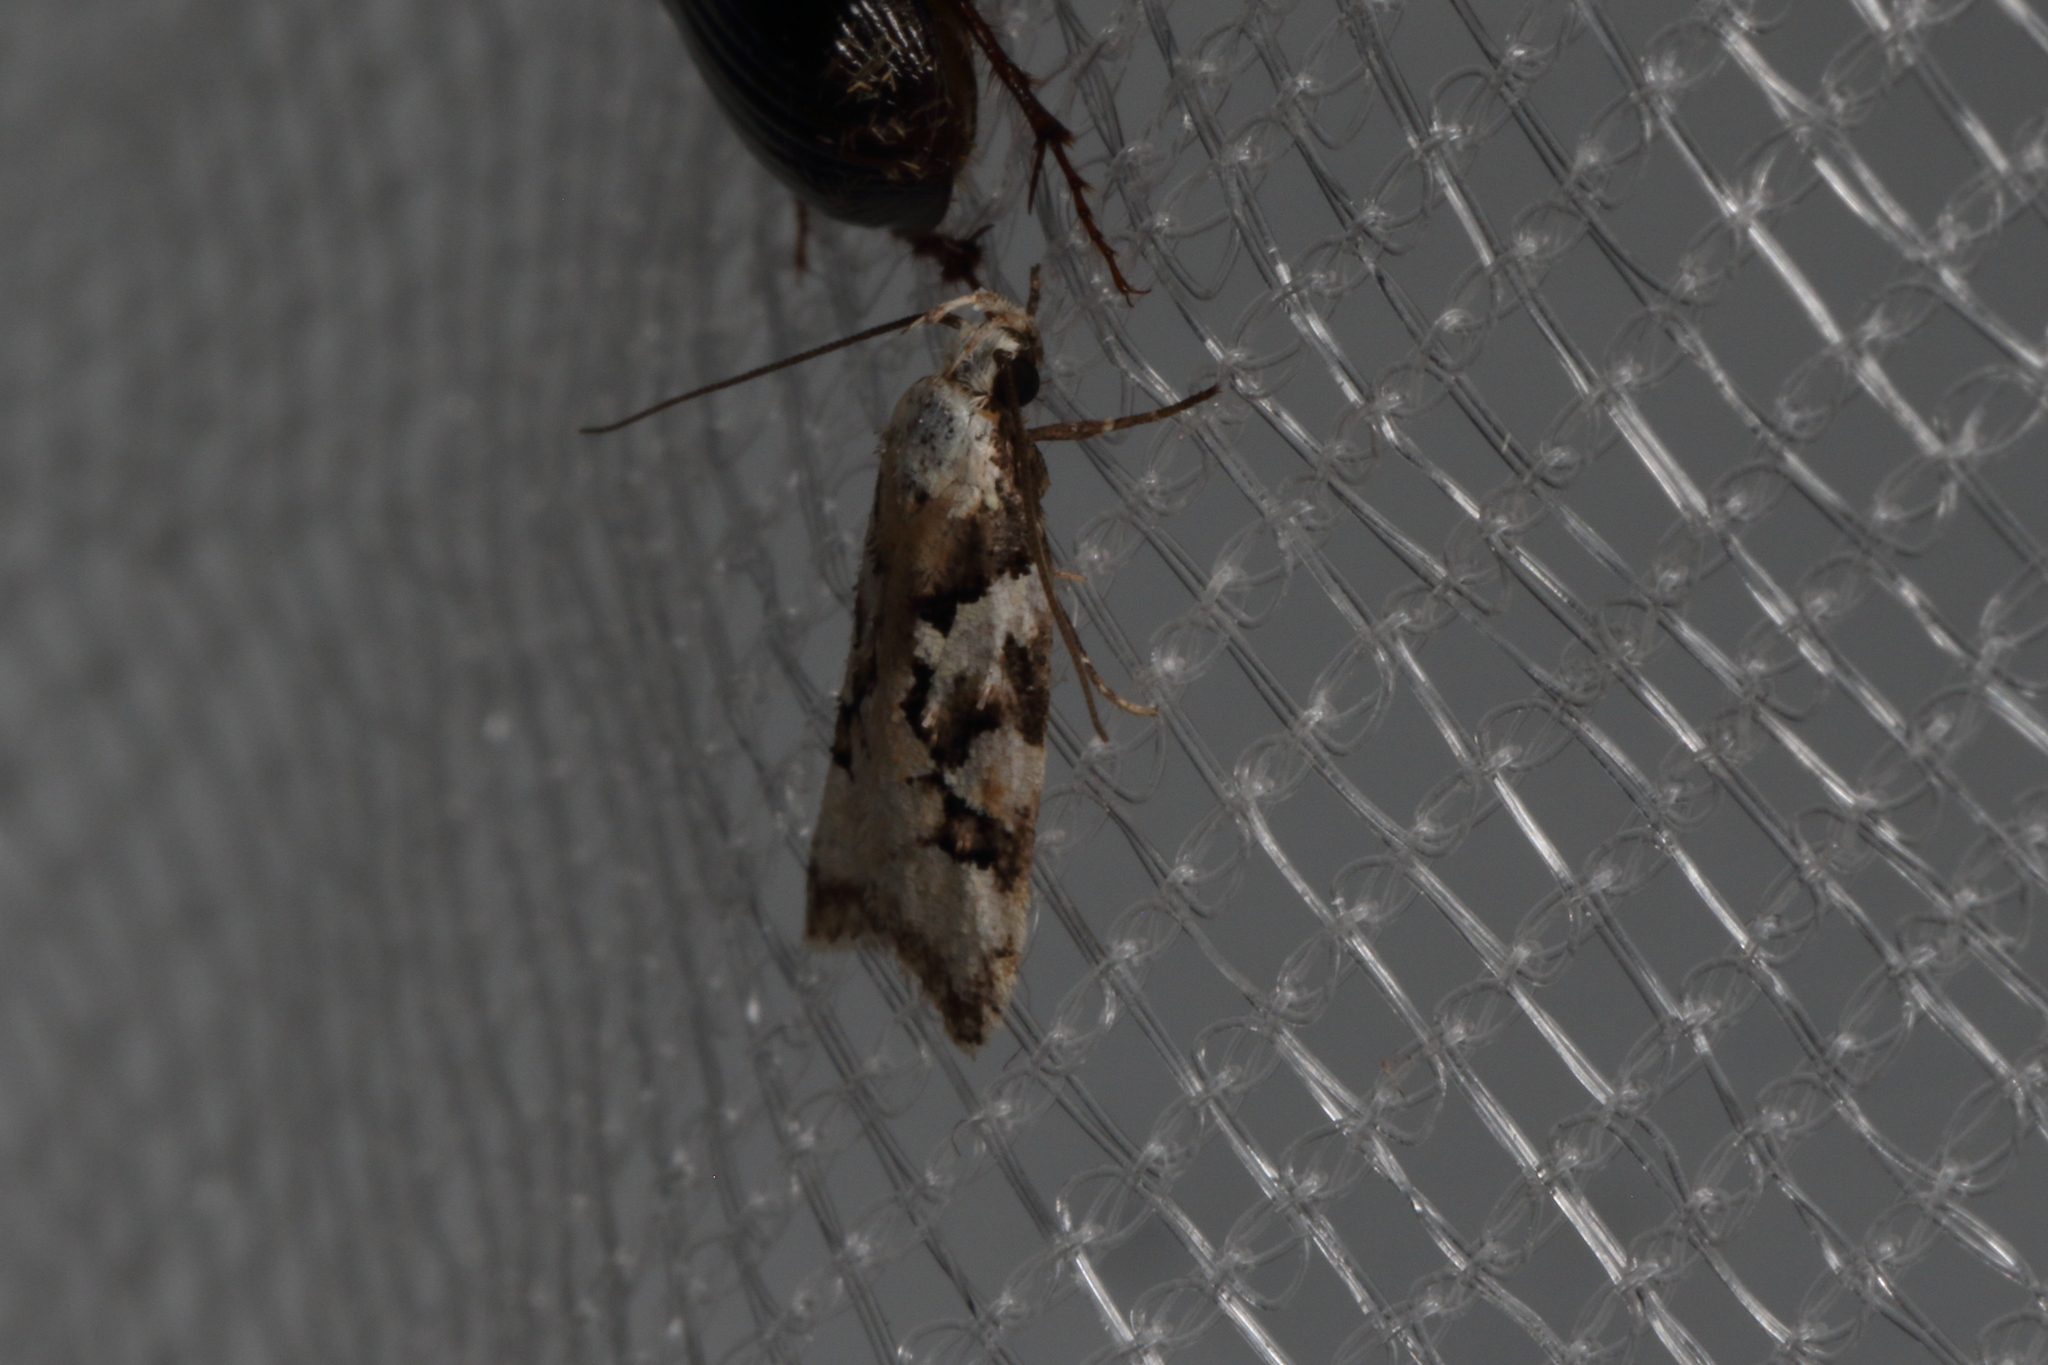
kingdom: Animalia
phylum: Arthropoda
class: Insecta
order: Lepidoptera
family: Oecophoridae
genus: Izatha
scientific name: Izatha epiphanes
